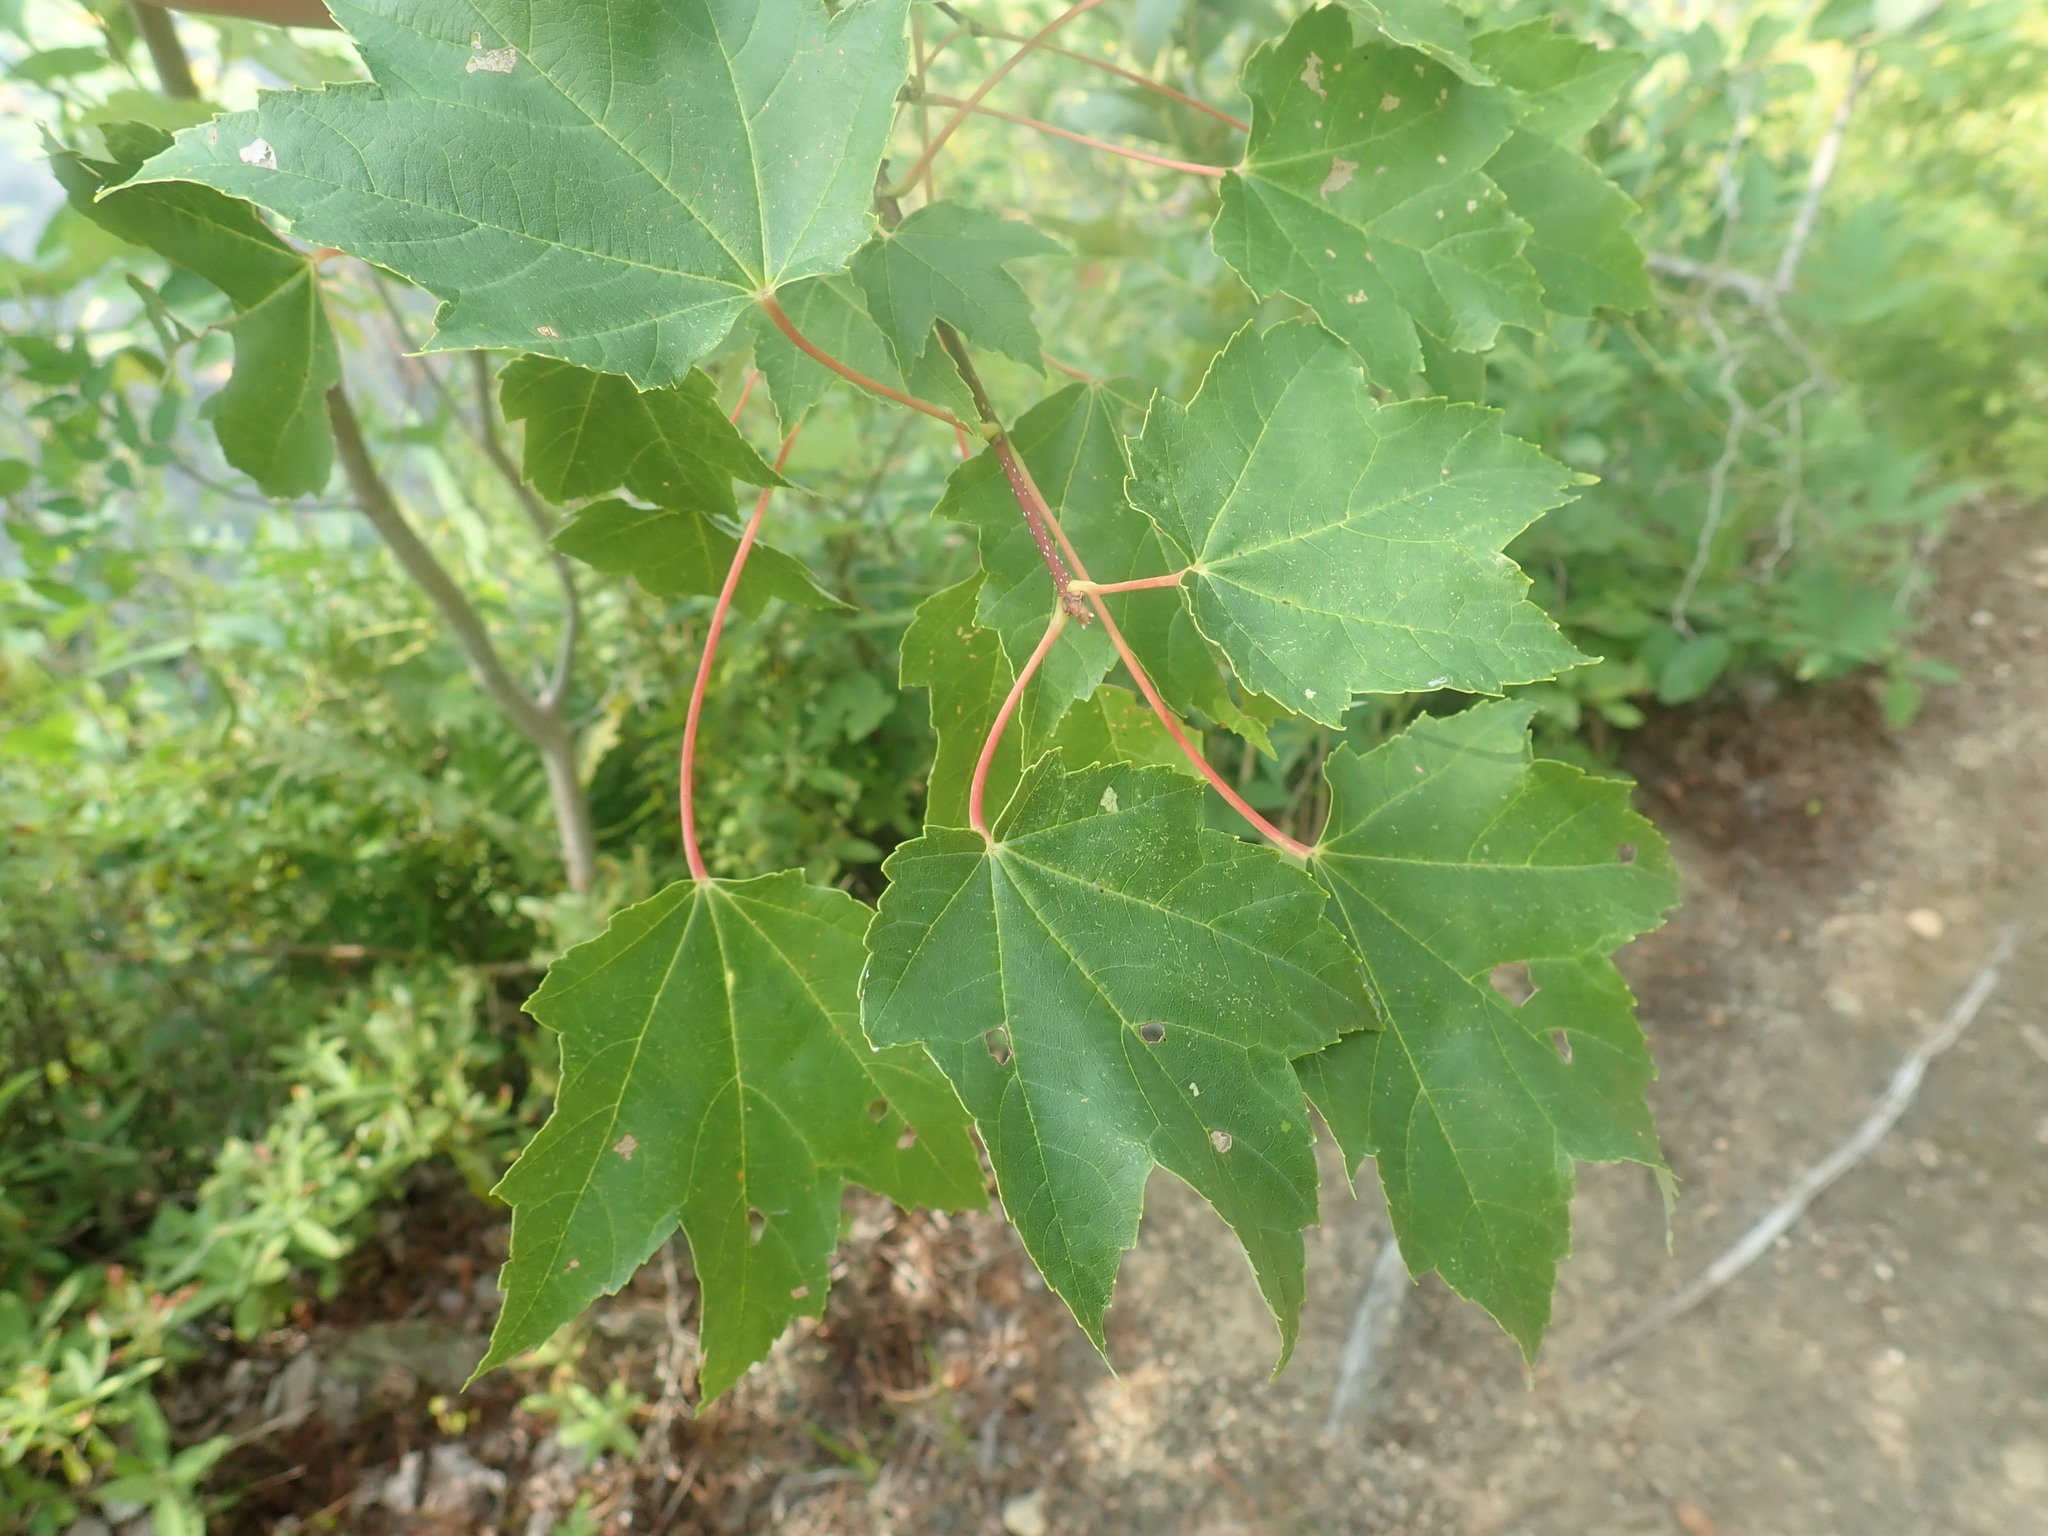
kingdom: Plantae
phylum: Tracheophyta
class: Magnoliopsida
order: Sapindales
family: Sapindaceae
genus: Acer
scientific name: Acer rubrum
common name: Red maple
